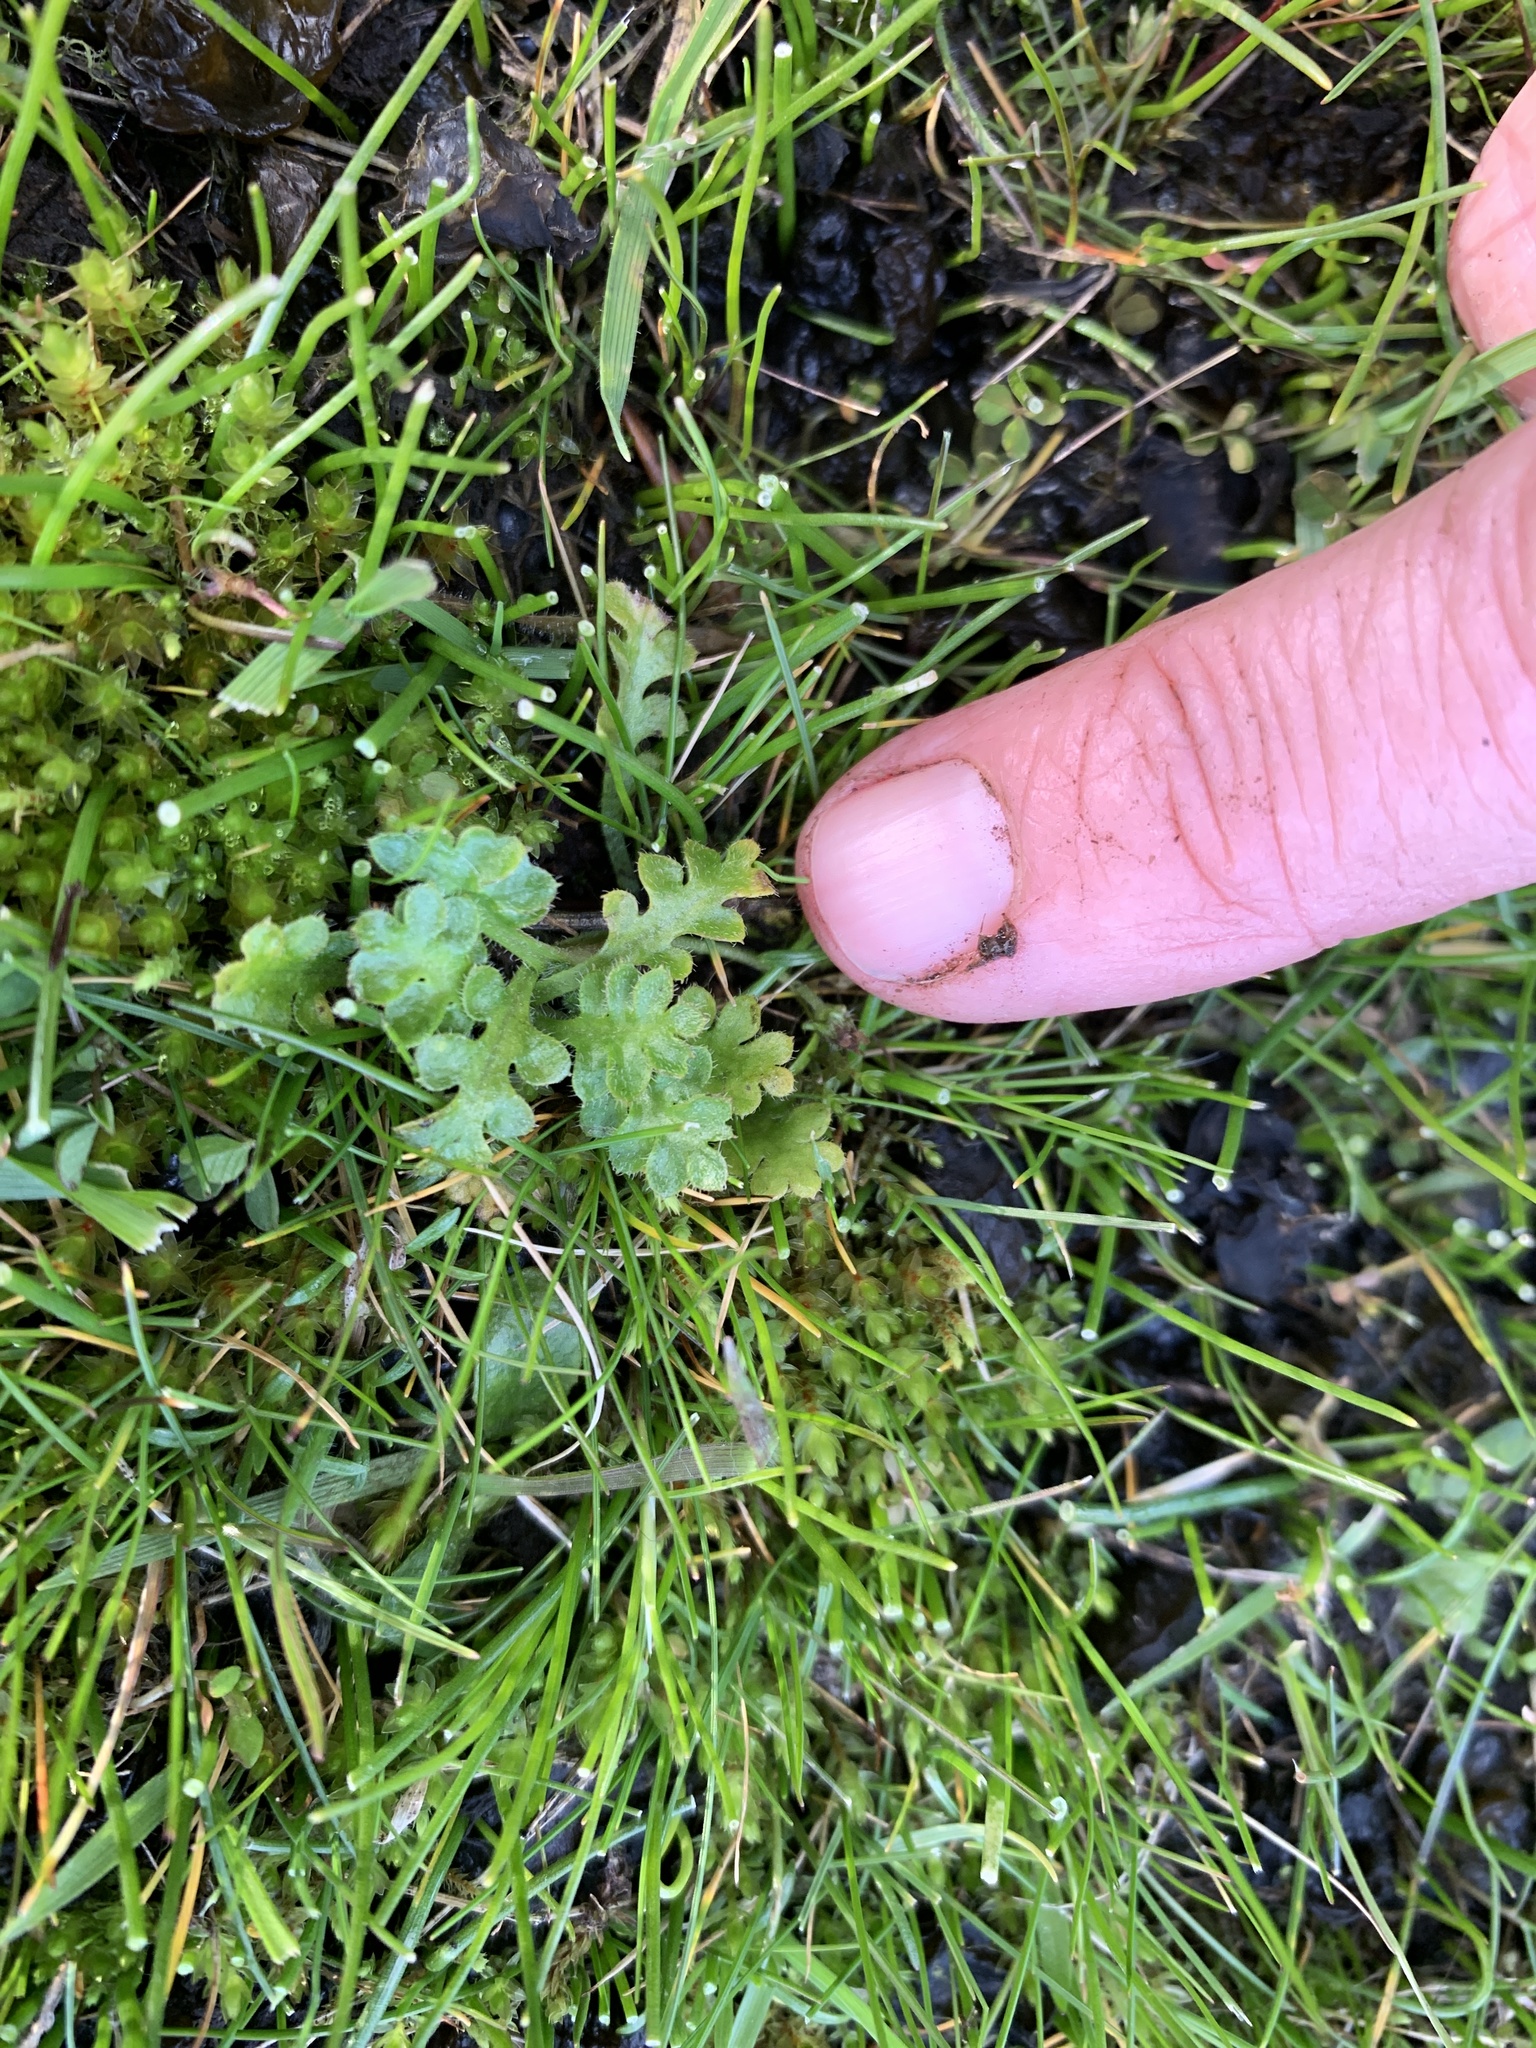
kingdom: Plantae
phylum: Tracheophyta
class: Magnoliopsida
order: Boraginales
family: Hydrophyllaceae
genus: Nemophila
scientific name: Nemophila pedunculata
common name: Little-foot baby-blue-eyes
